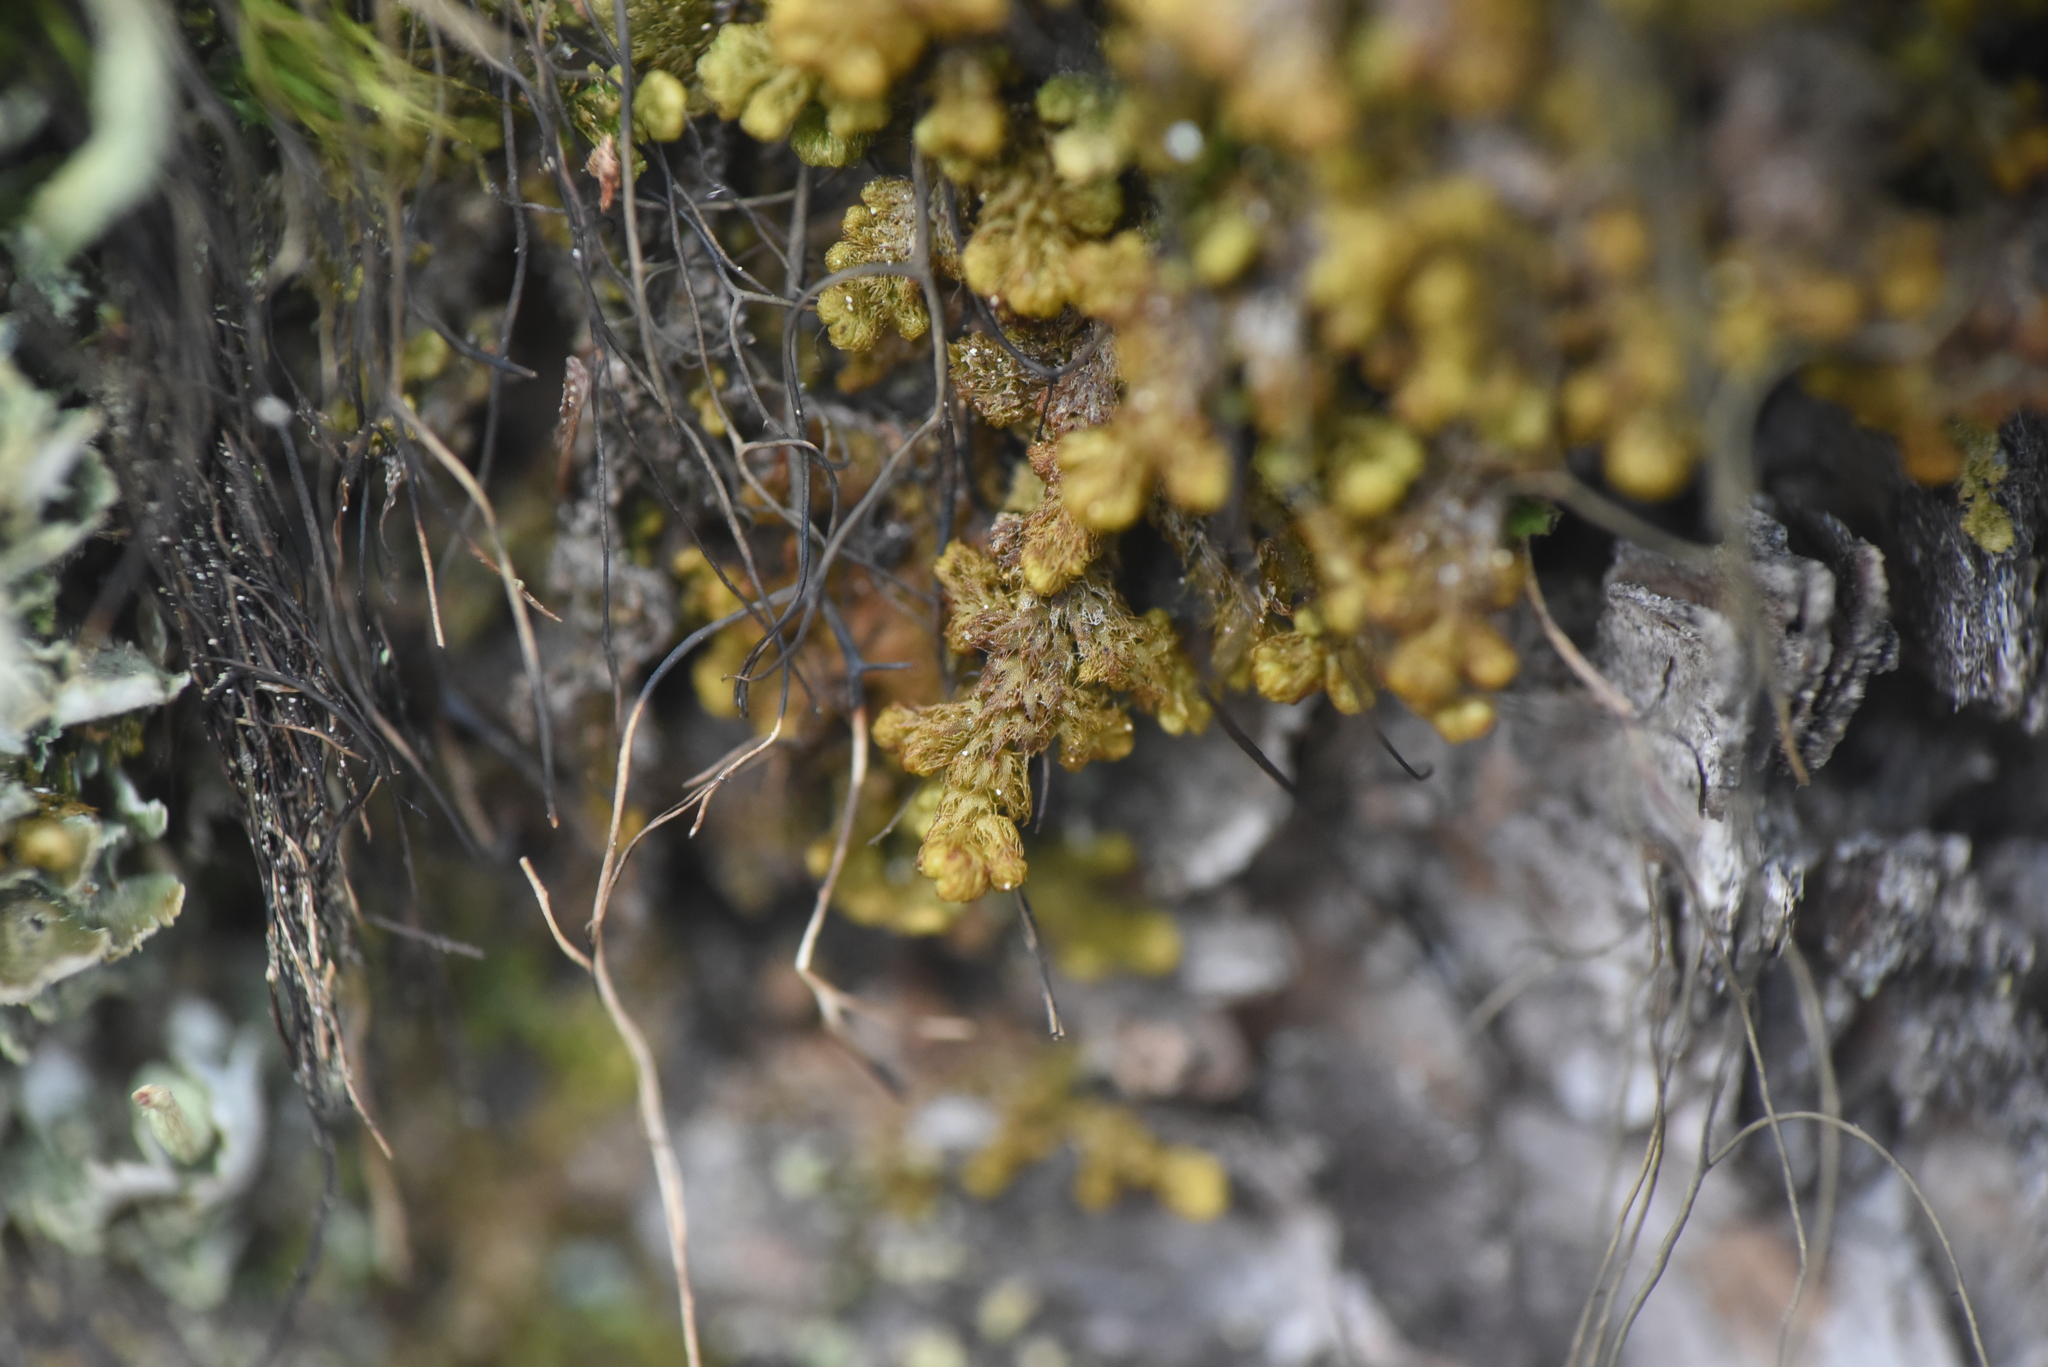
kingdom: Plantae
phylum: Marchantiophyta
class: Jungermanniopsida
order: Ptilidiales
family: Ptilidiaceae
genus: Ptilidium
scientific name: Ptilidium pulcherrimum
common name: Tree fringewort
